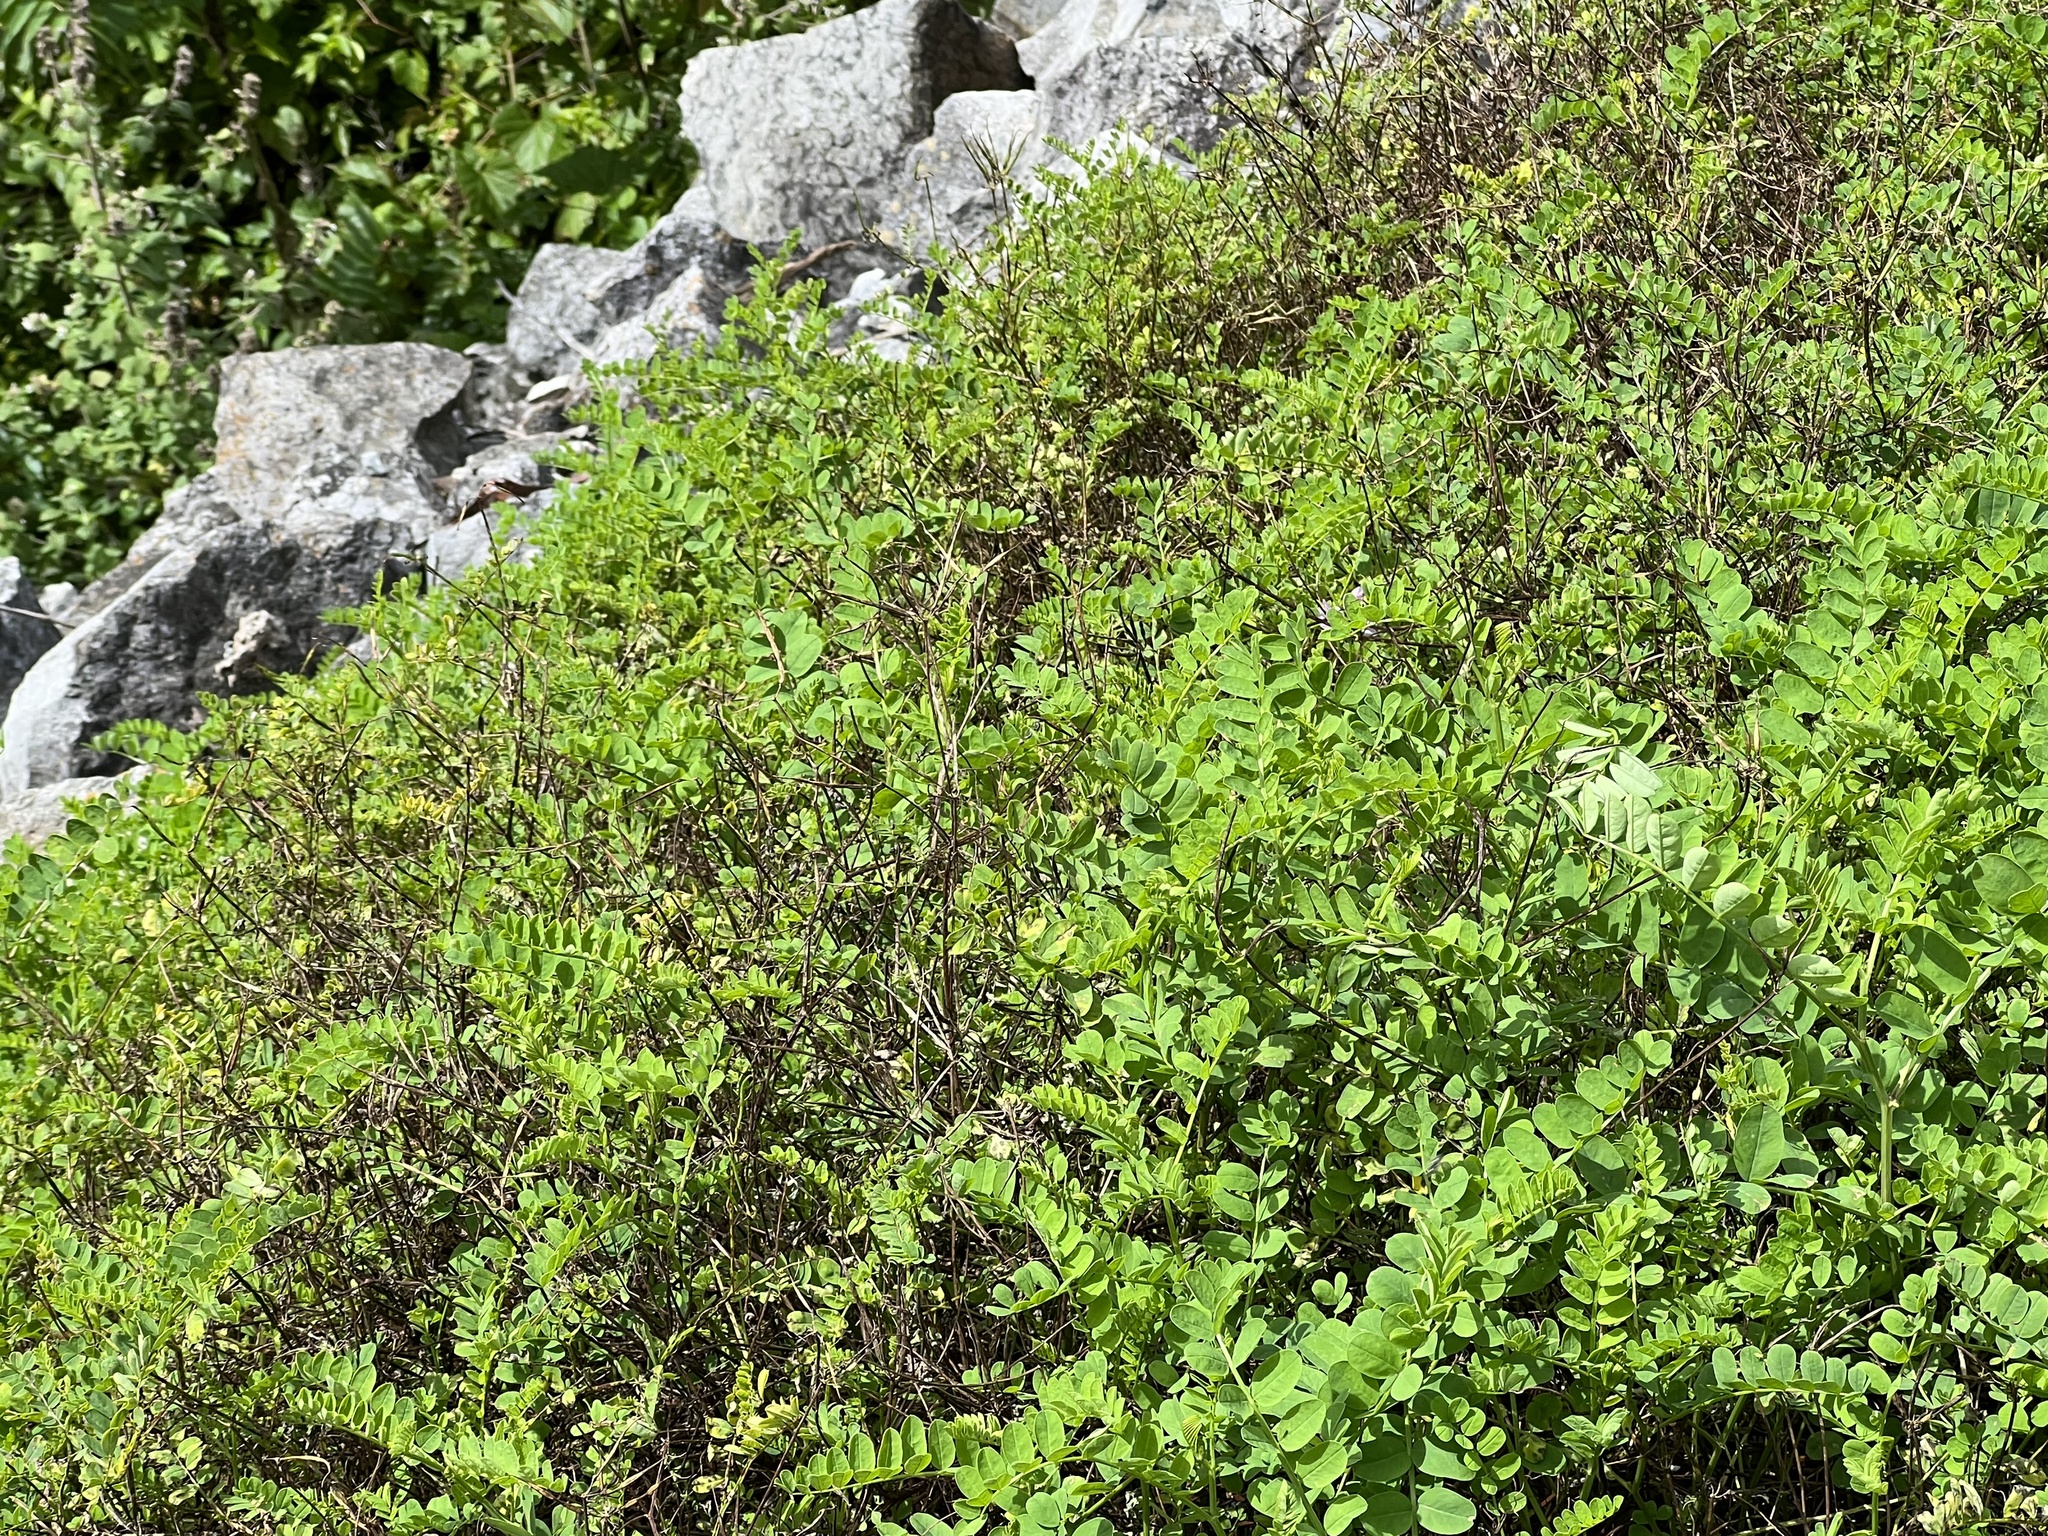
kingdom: Plantae
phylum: Tracheophyta
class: Magnoliopsida
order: Fabales
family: Fabaceae
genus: Coronilla
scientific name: Coronilla varia
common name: Crownvetch
